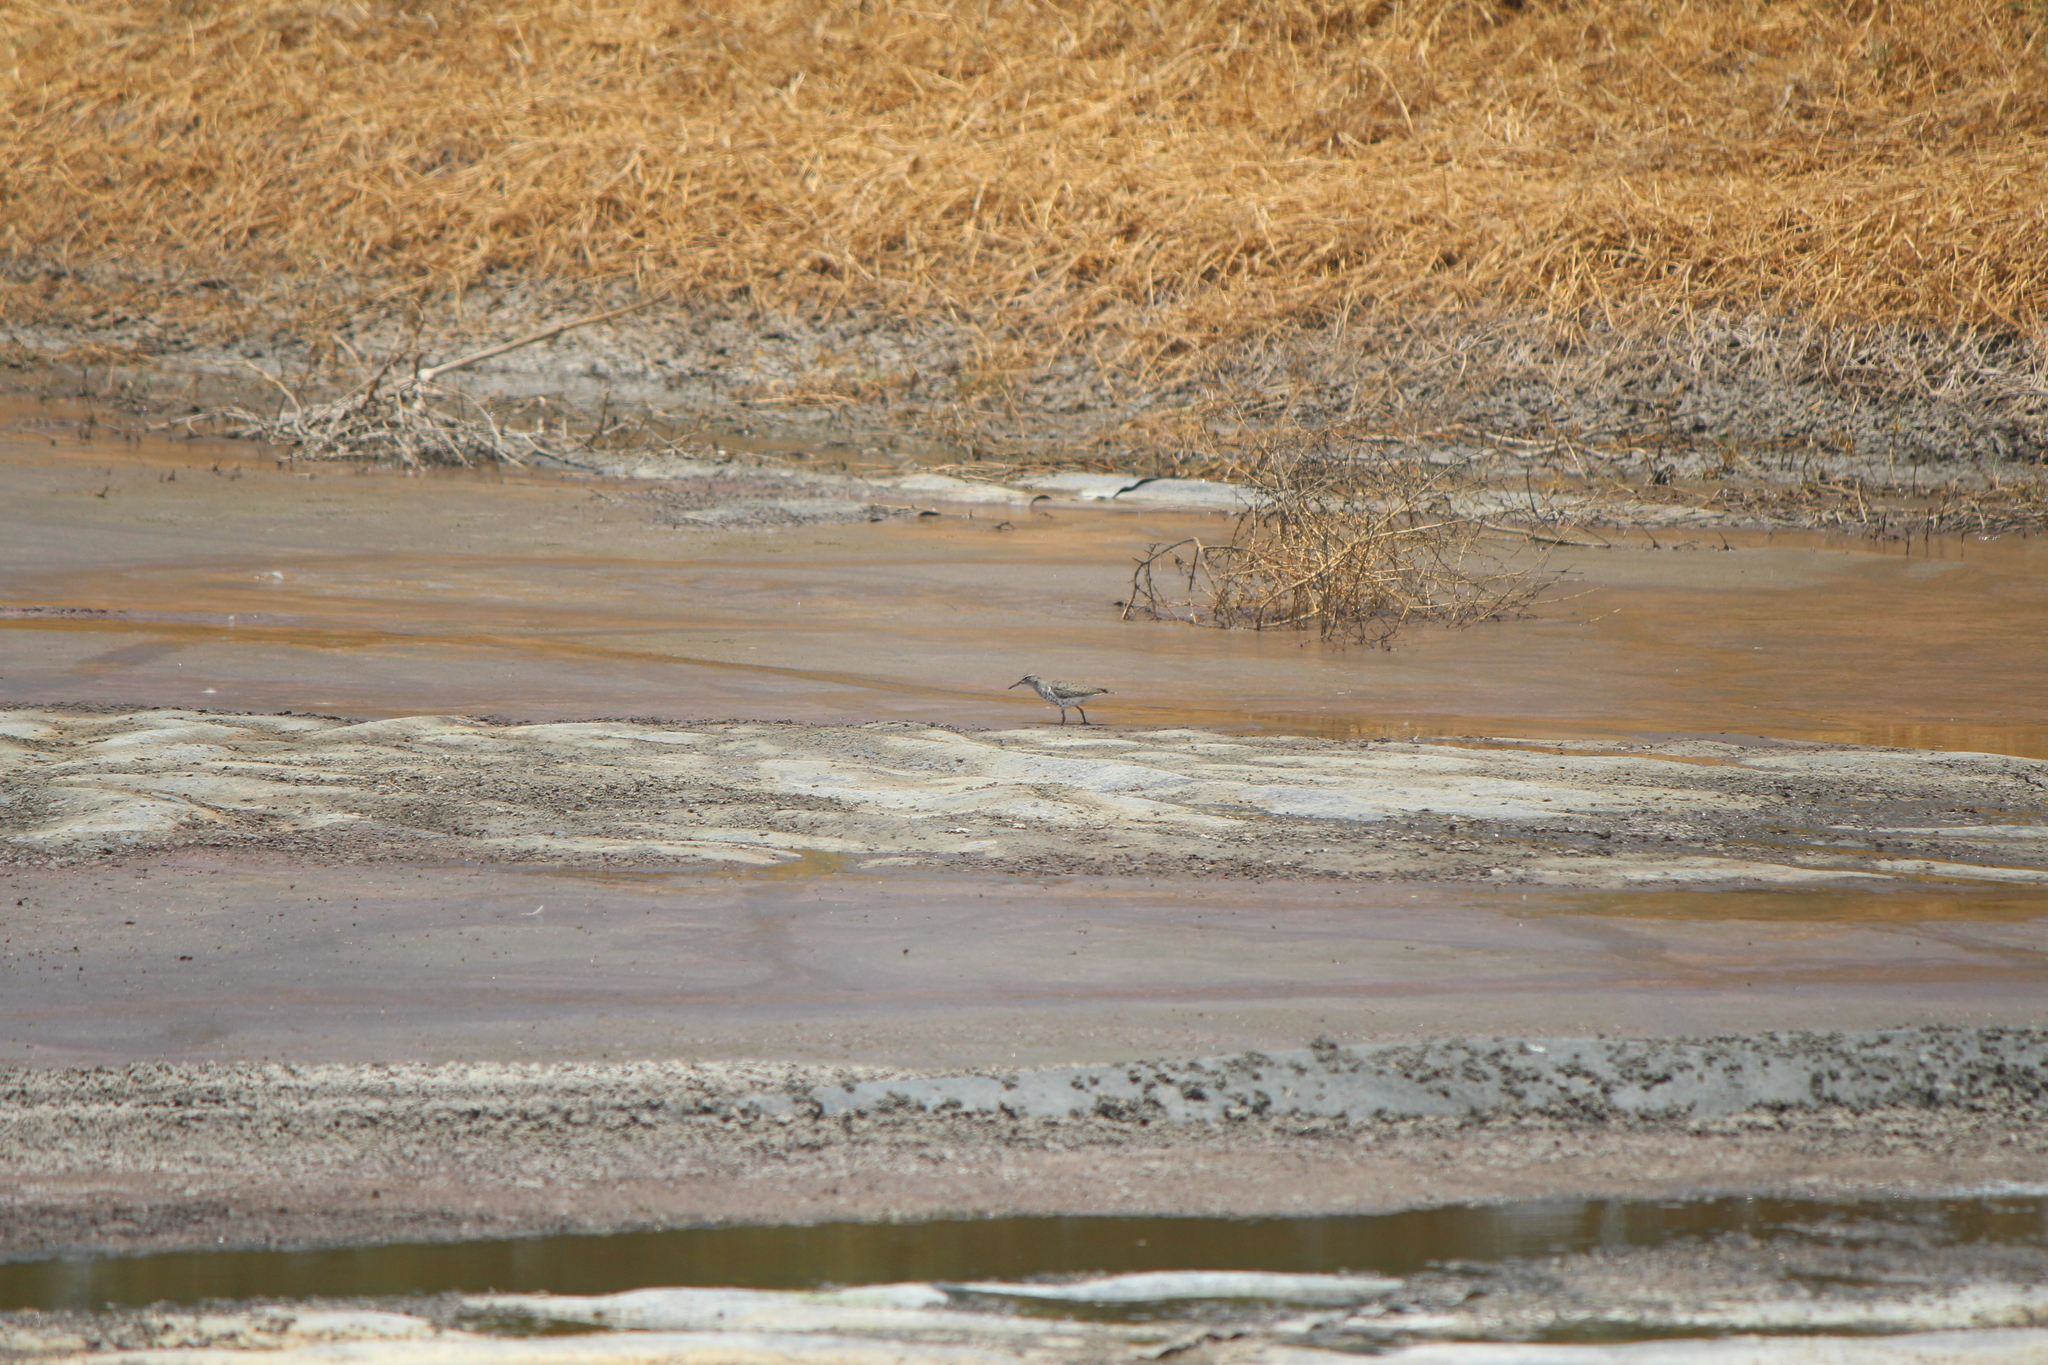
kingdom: Animalia
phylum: Chordata
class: Aves
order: Charadriiformes
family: Scolopacidae
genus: Actitis
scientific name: Actitis macularius
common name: Spotted sandpiper
